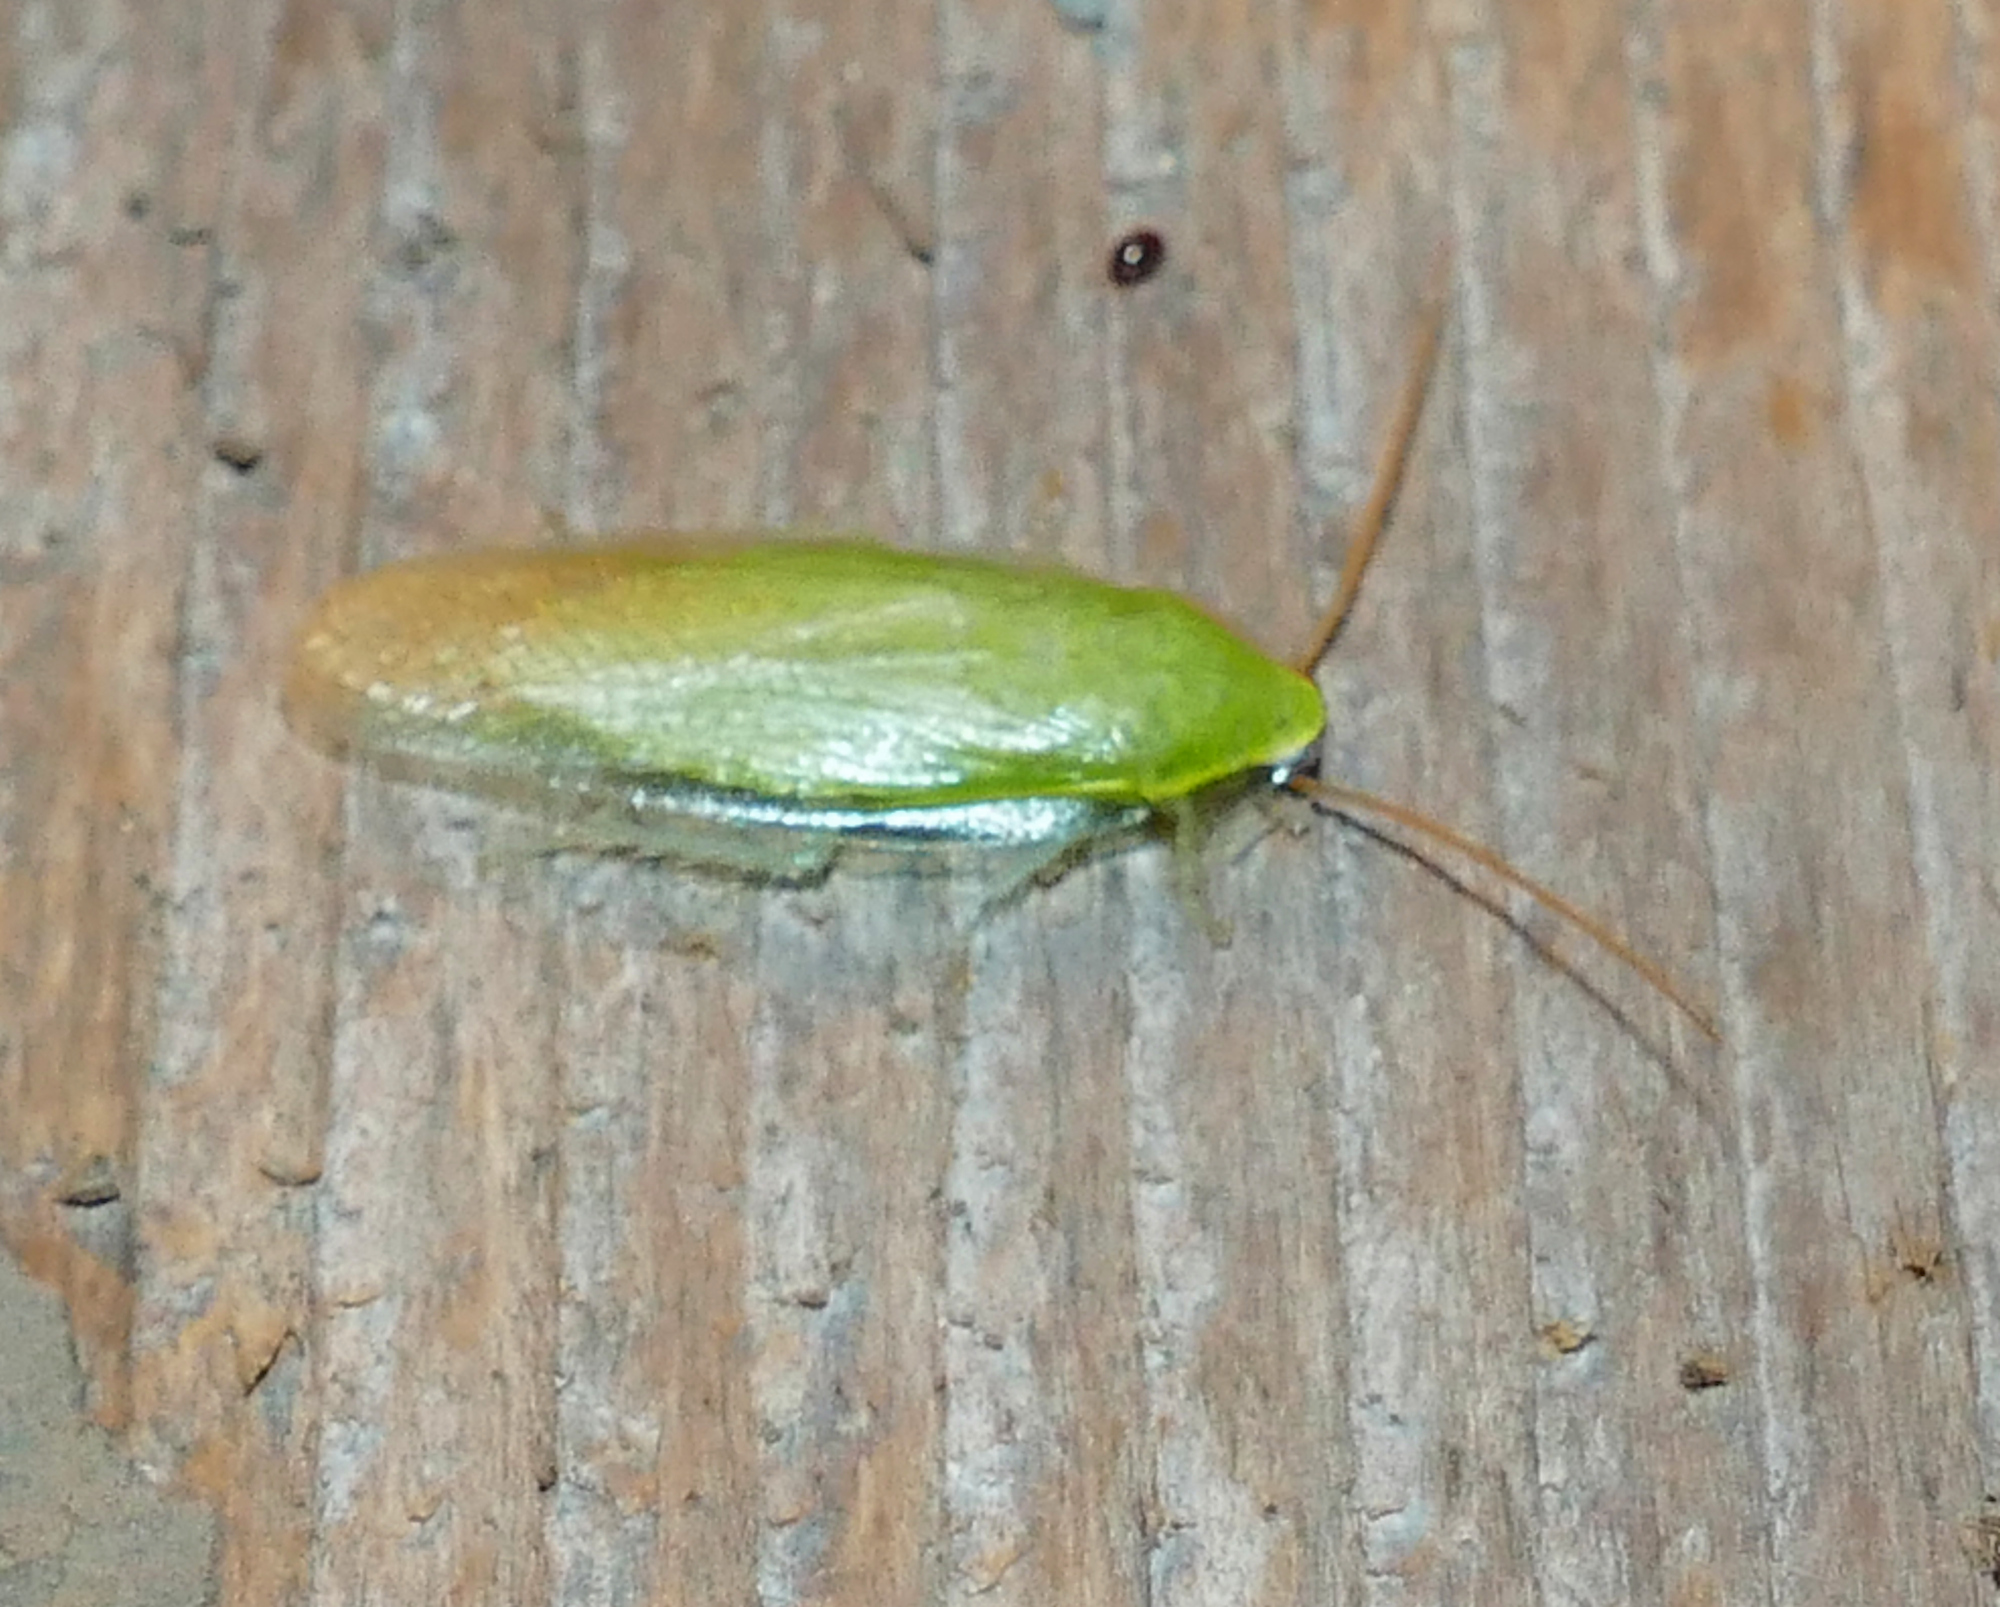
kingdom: Animalia
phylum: Arthropoda
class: Insecta
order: Blattodea
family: Blaberidae
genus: Panchlora
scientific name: Panchlora nivea
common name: Cuban cockroach
